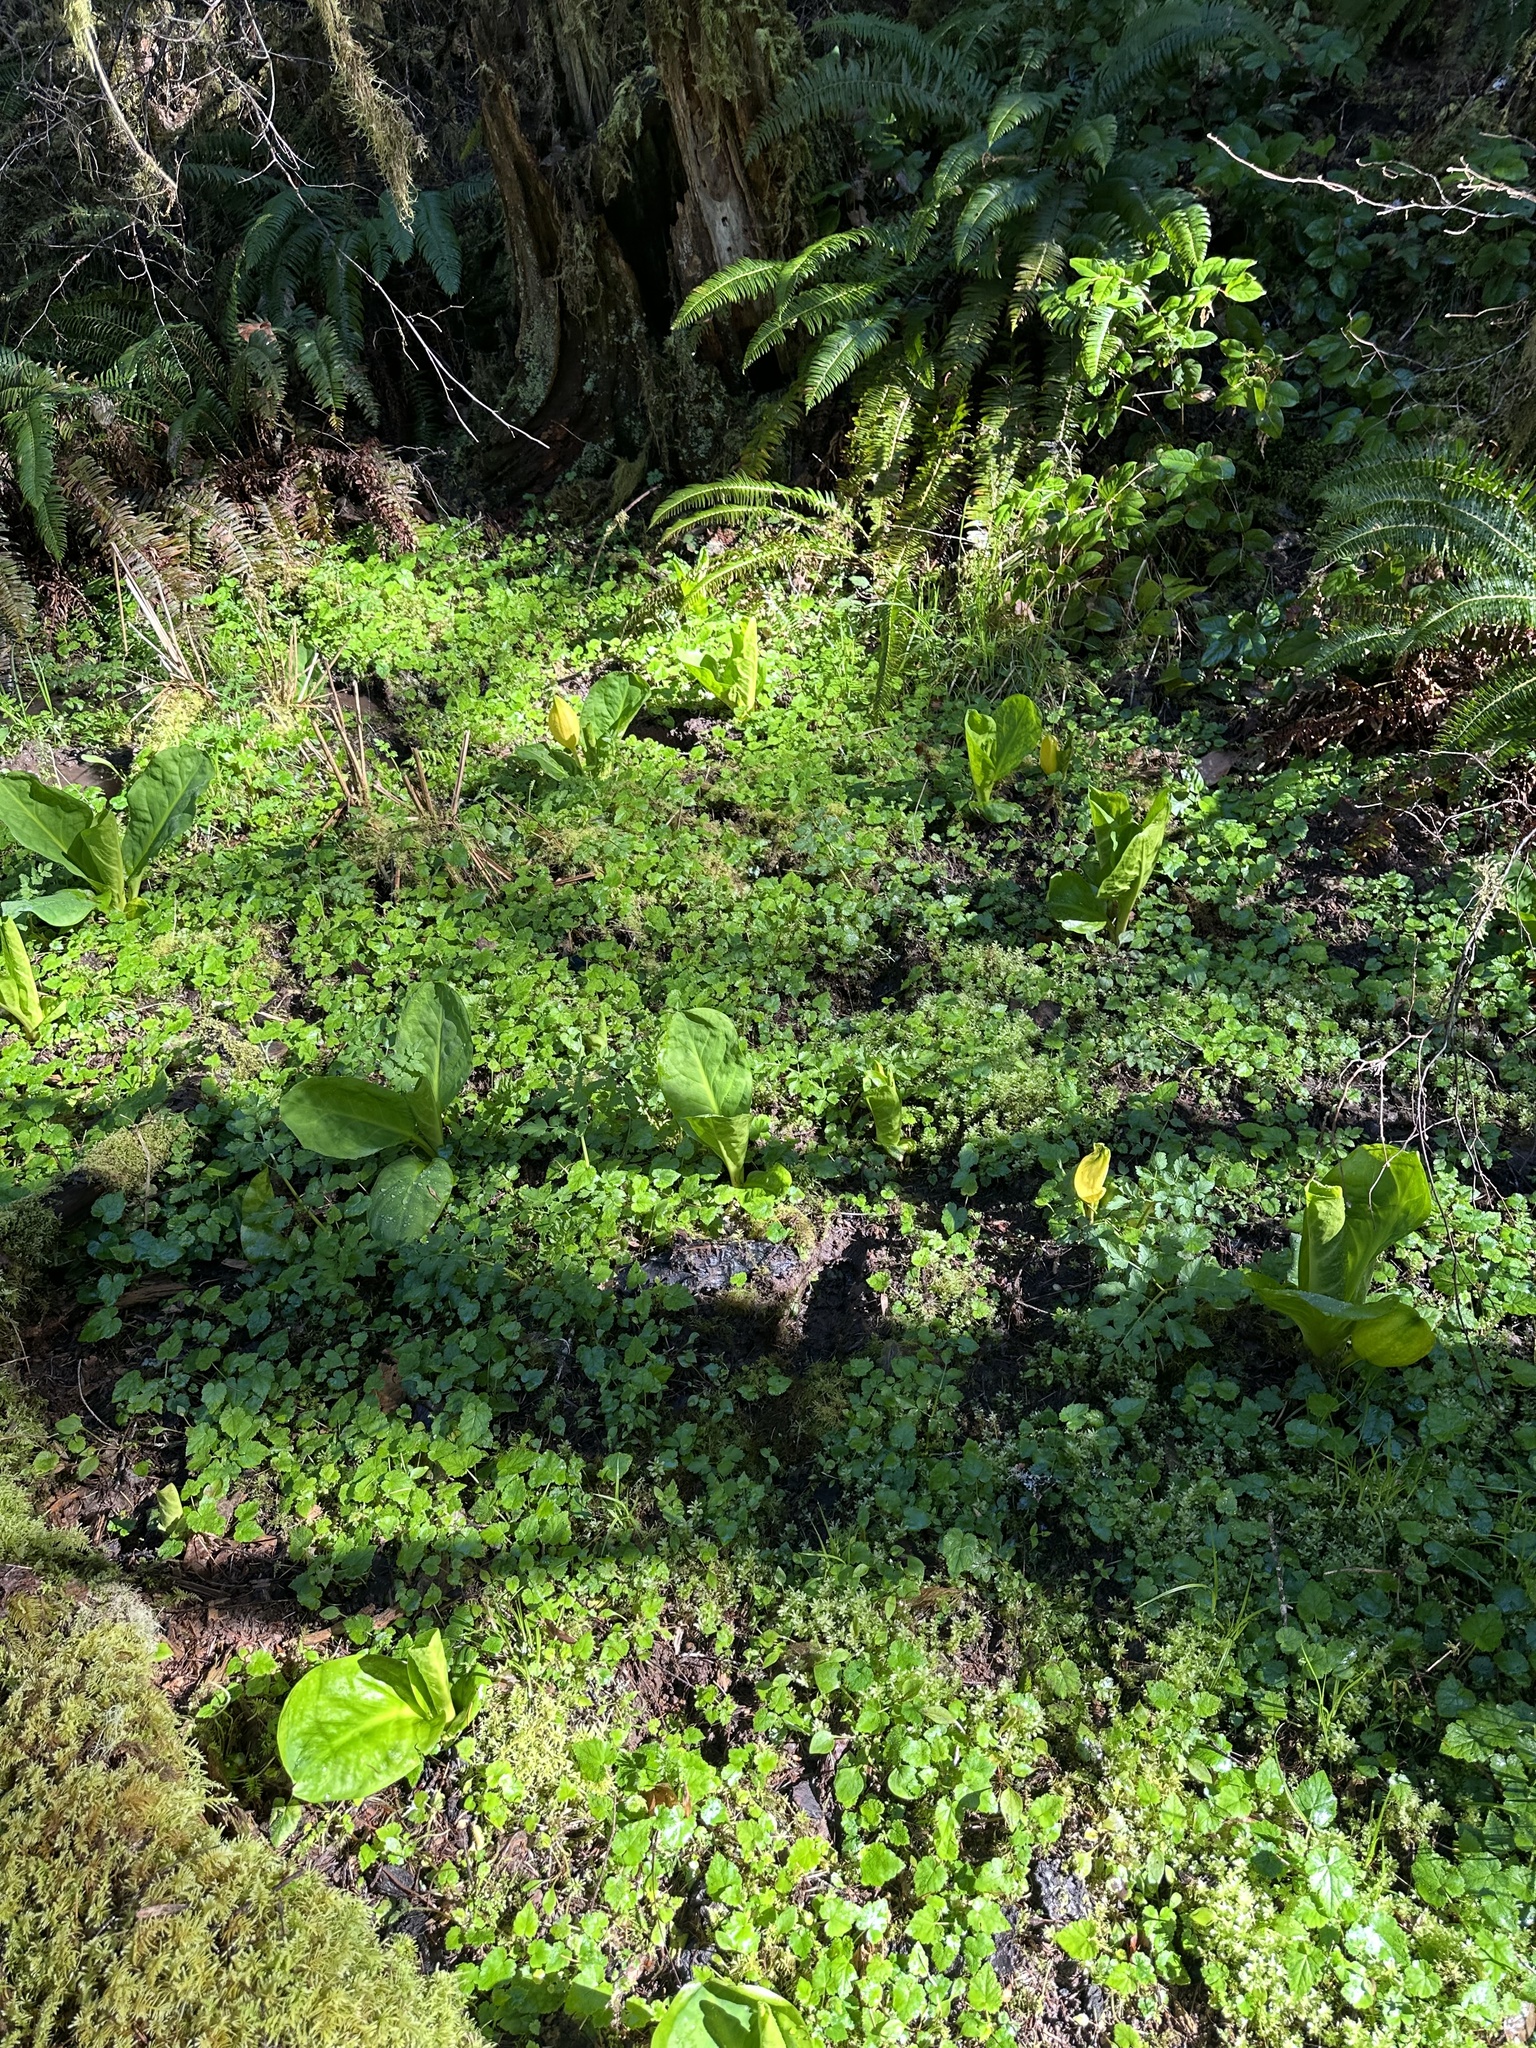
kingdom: Plantae
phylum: Tracheophyta
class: Liliopsida
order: Alismatales
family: Araceae
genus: Lysichiton
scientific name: Lysichiton americanus
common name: American skunk cabbage
